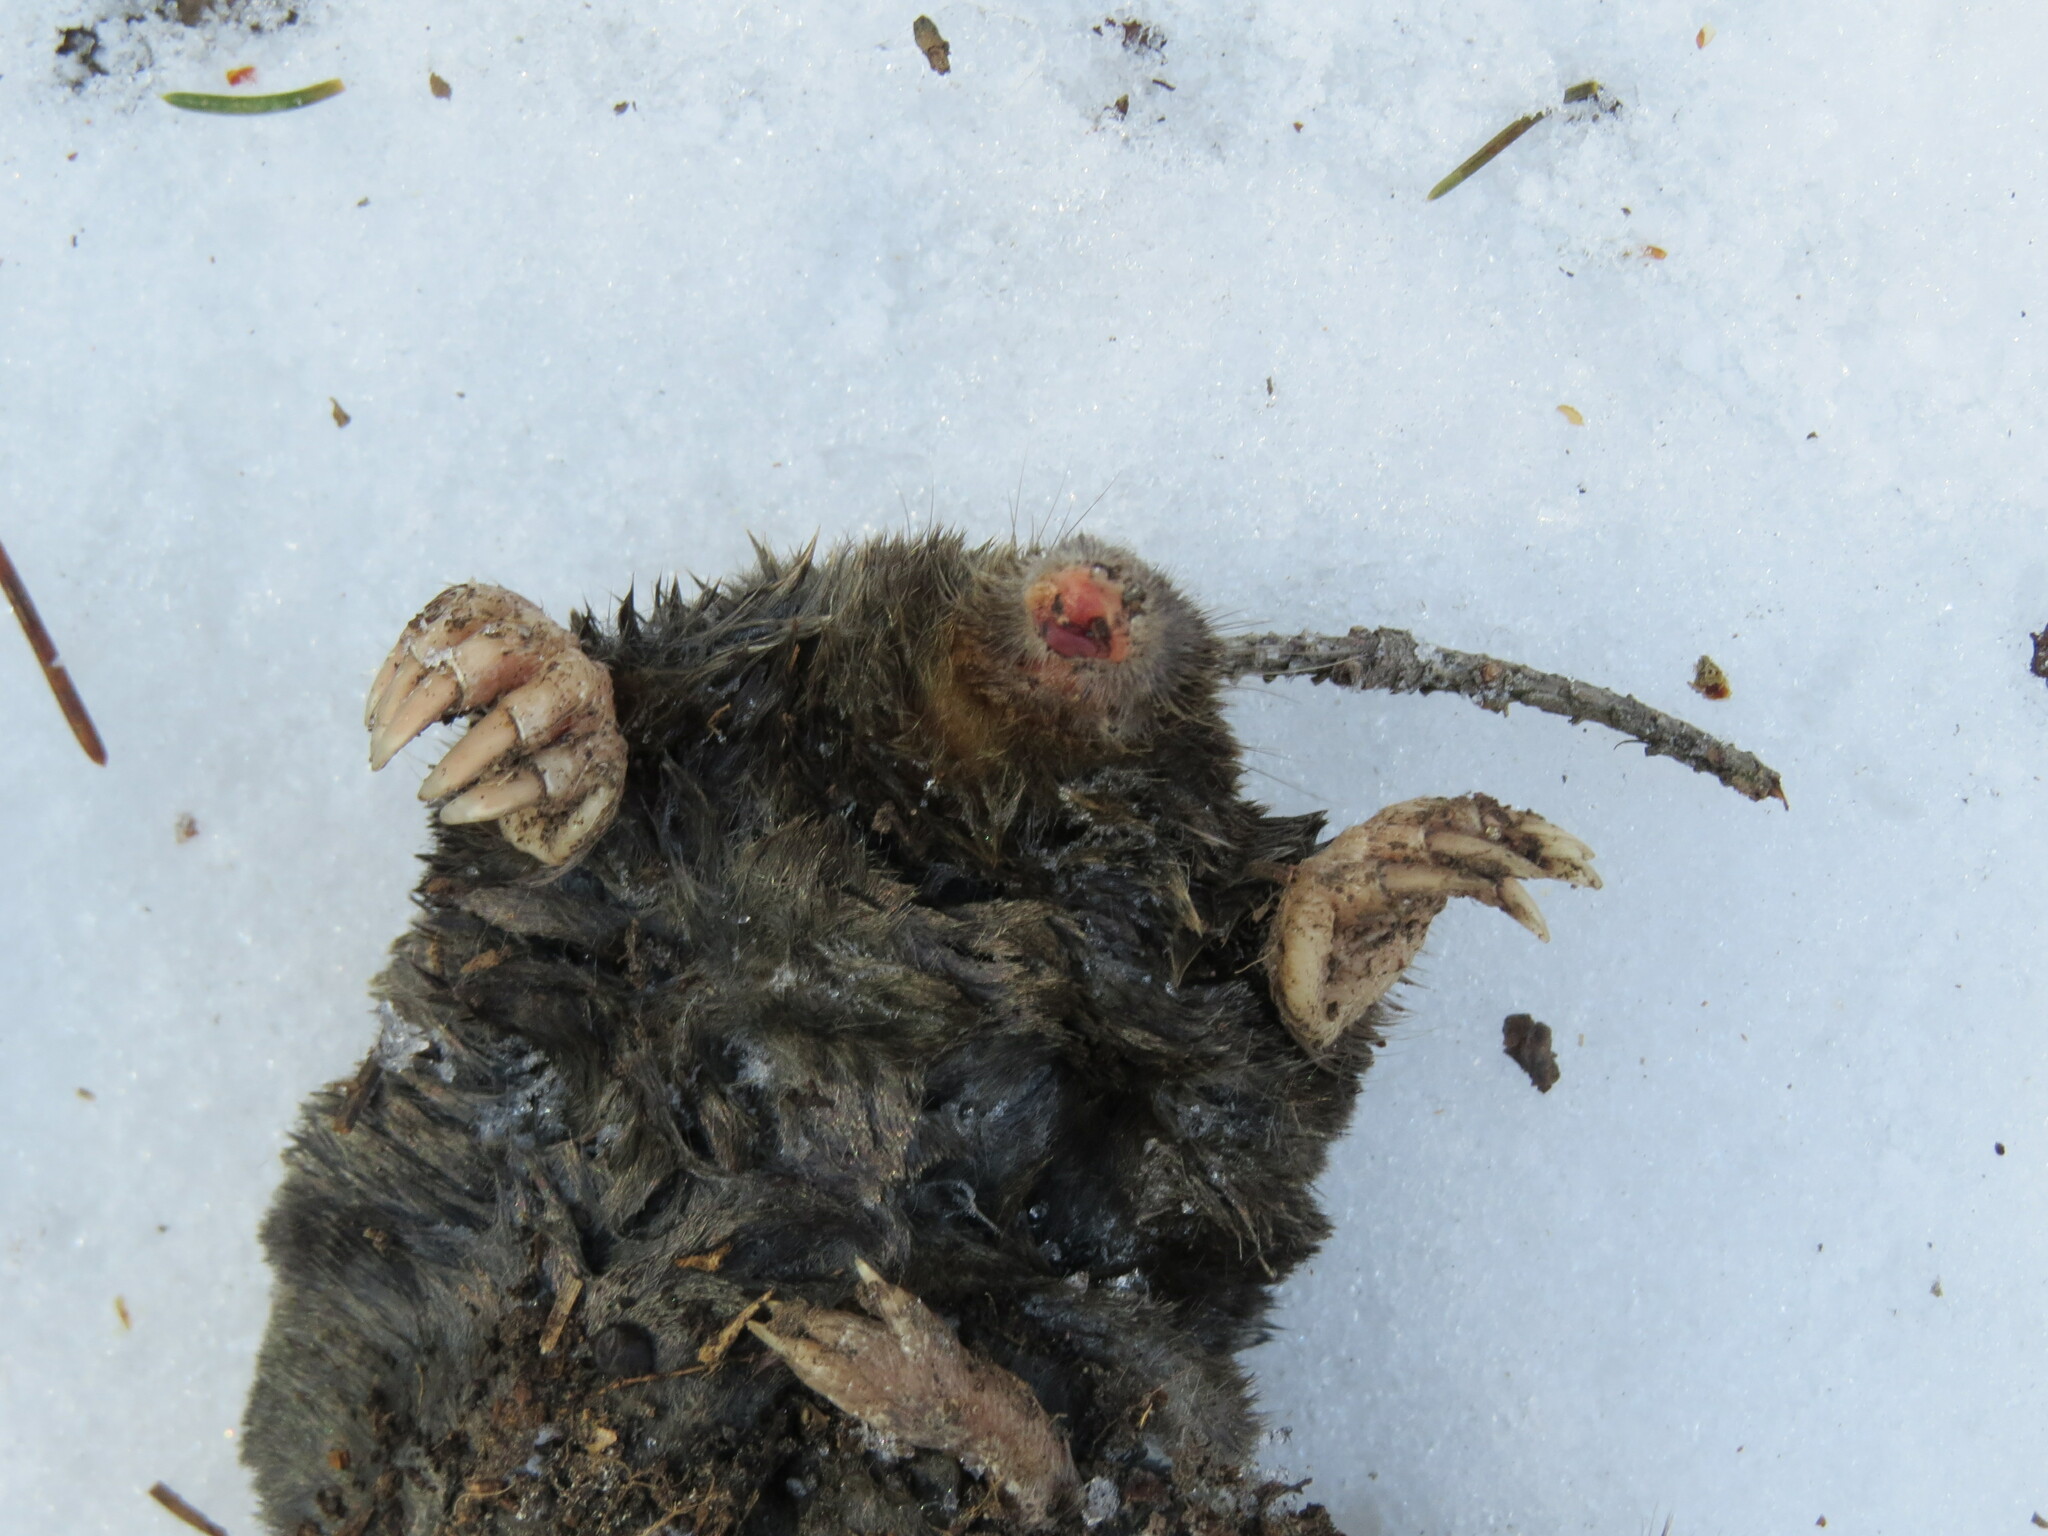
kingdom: Animalia
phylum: Chordata
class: Mammalia
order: Soricomorpha
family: Talpidae
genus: Talpa
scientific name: Talpa europaea
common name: European mole
